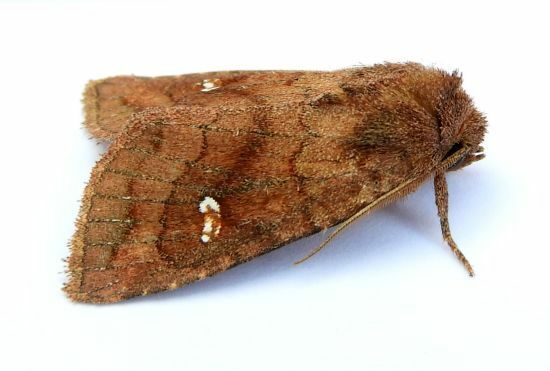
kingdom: Animalia
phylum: Arthropoda
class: Insecta
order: Lepidoptera
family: Noctuidae
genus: Tricholita
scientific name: Tricholita signata
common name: Signate quaker
